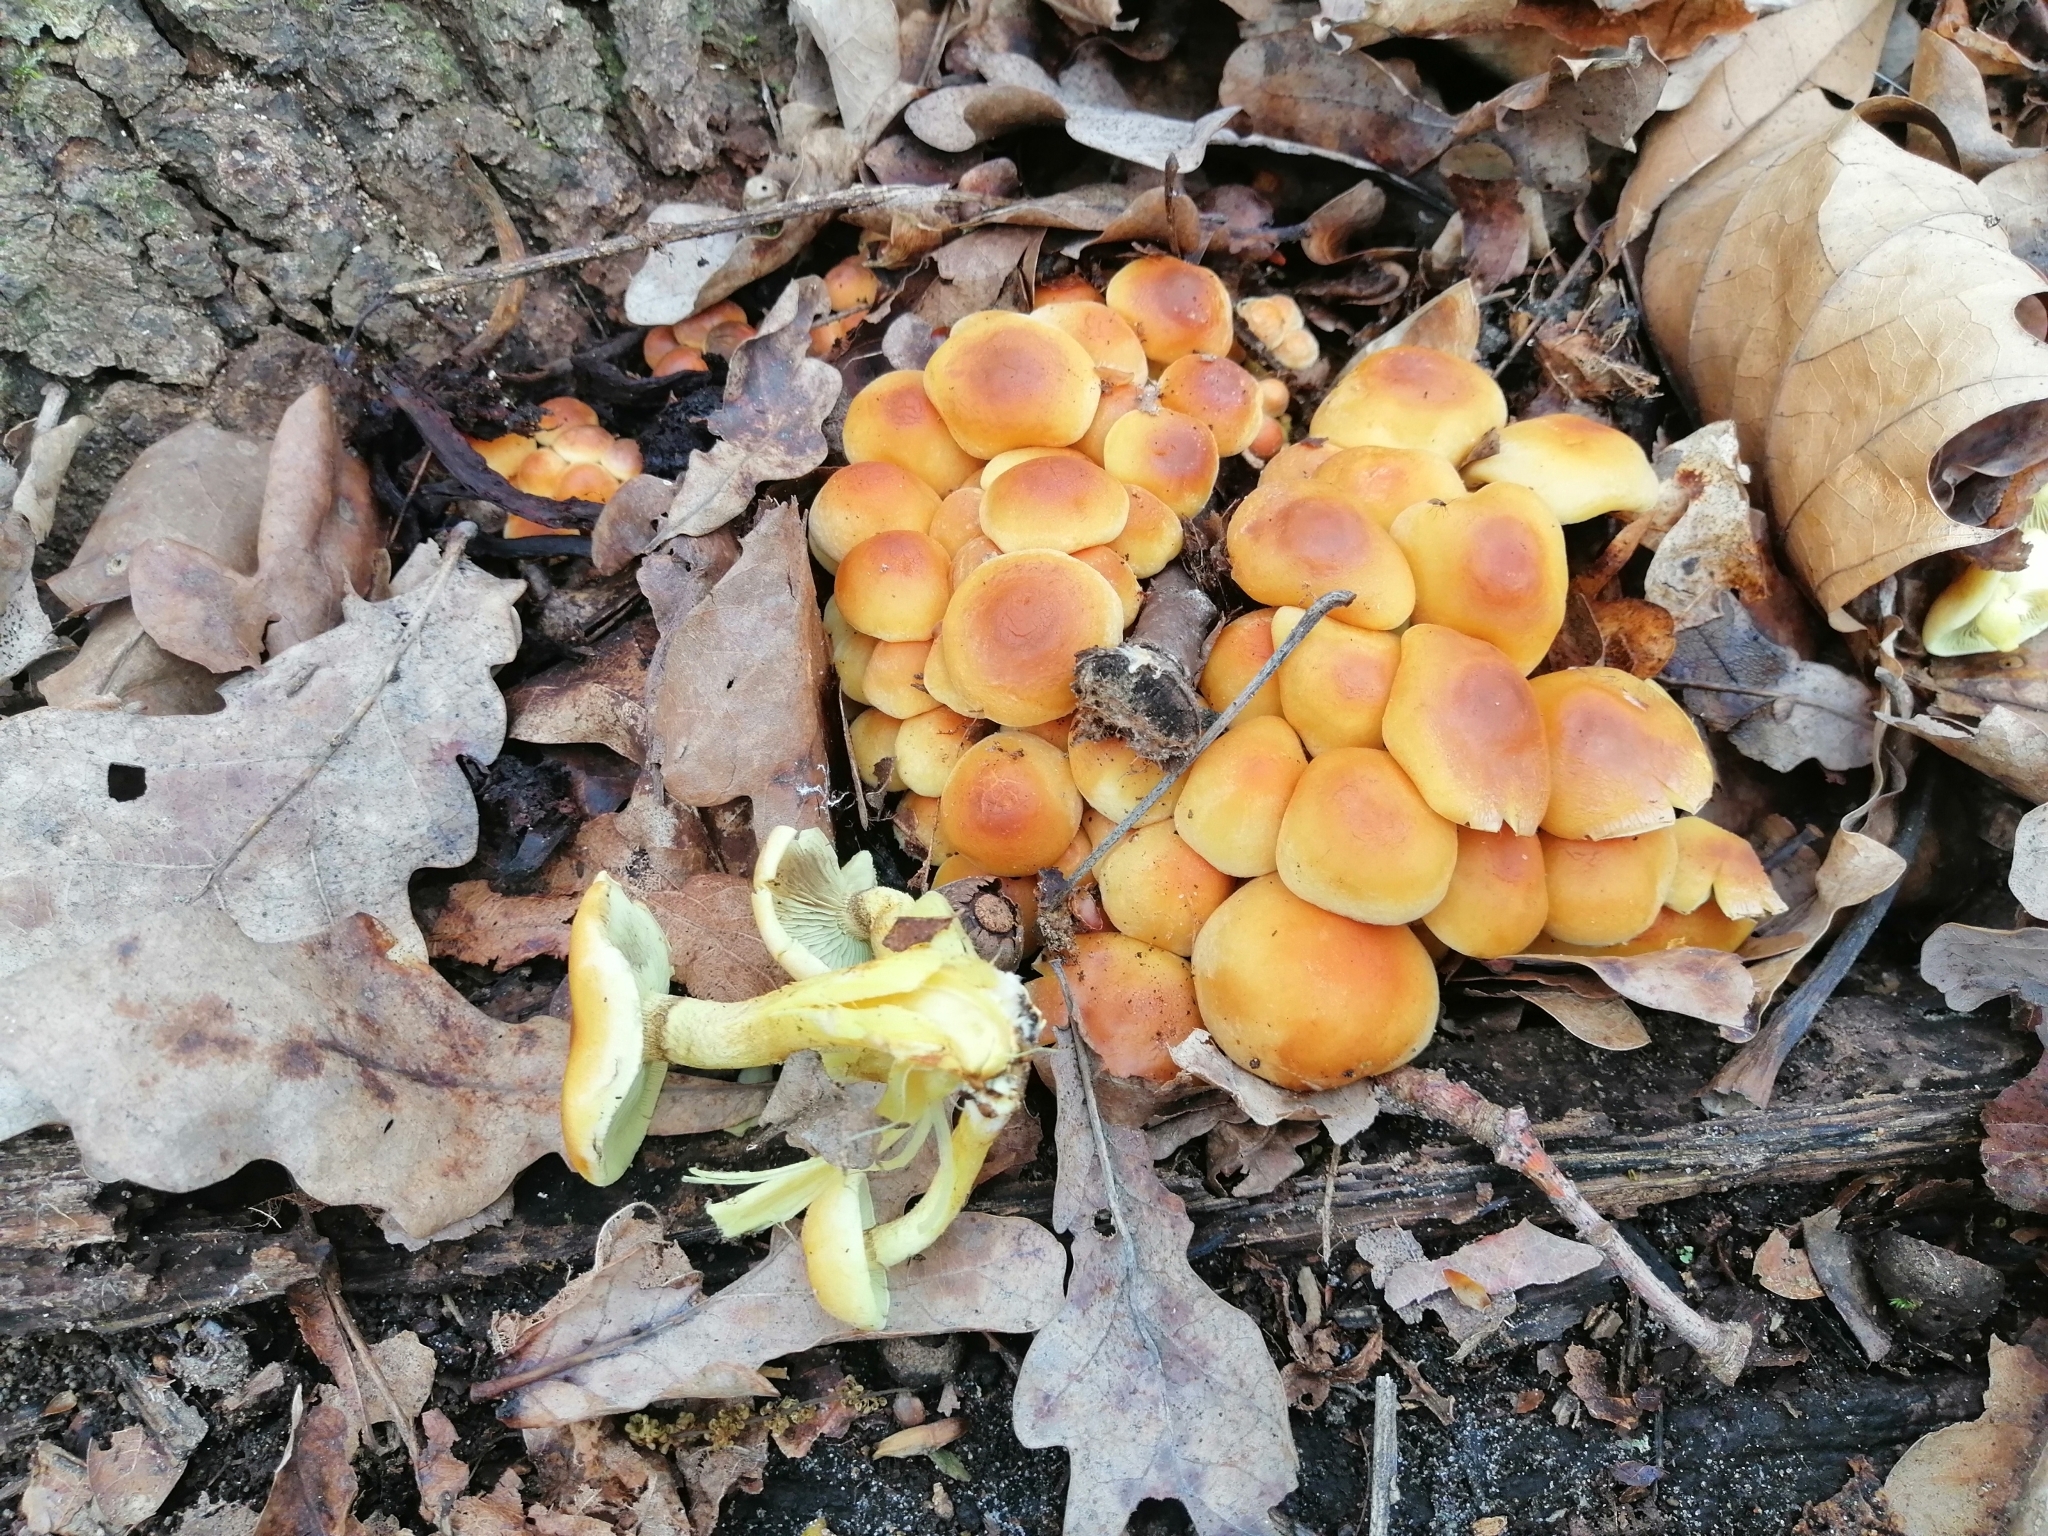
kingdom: Fungi
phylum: Basidiomycota
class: Agaricomycetes
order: Agaricales
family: Strophariaceae
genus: Hypholoma
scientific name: Hypholoma fasciculare
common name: Sulphur tuft
